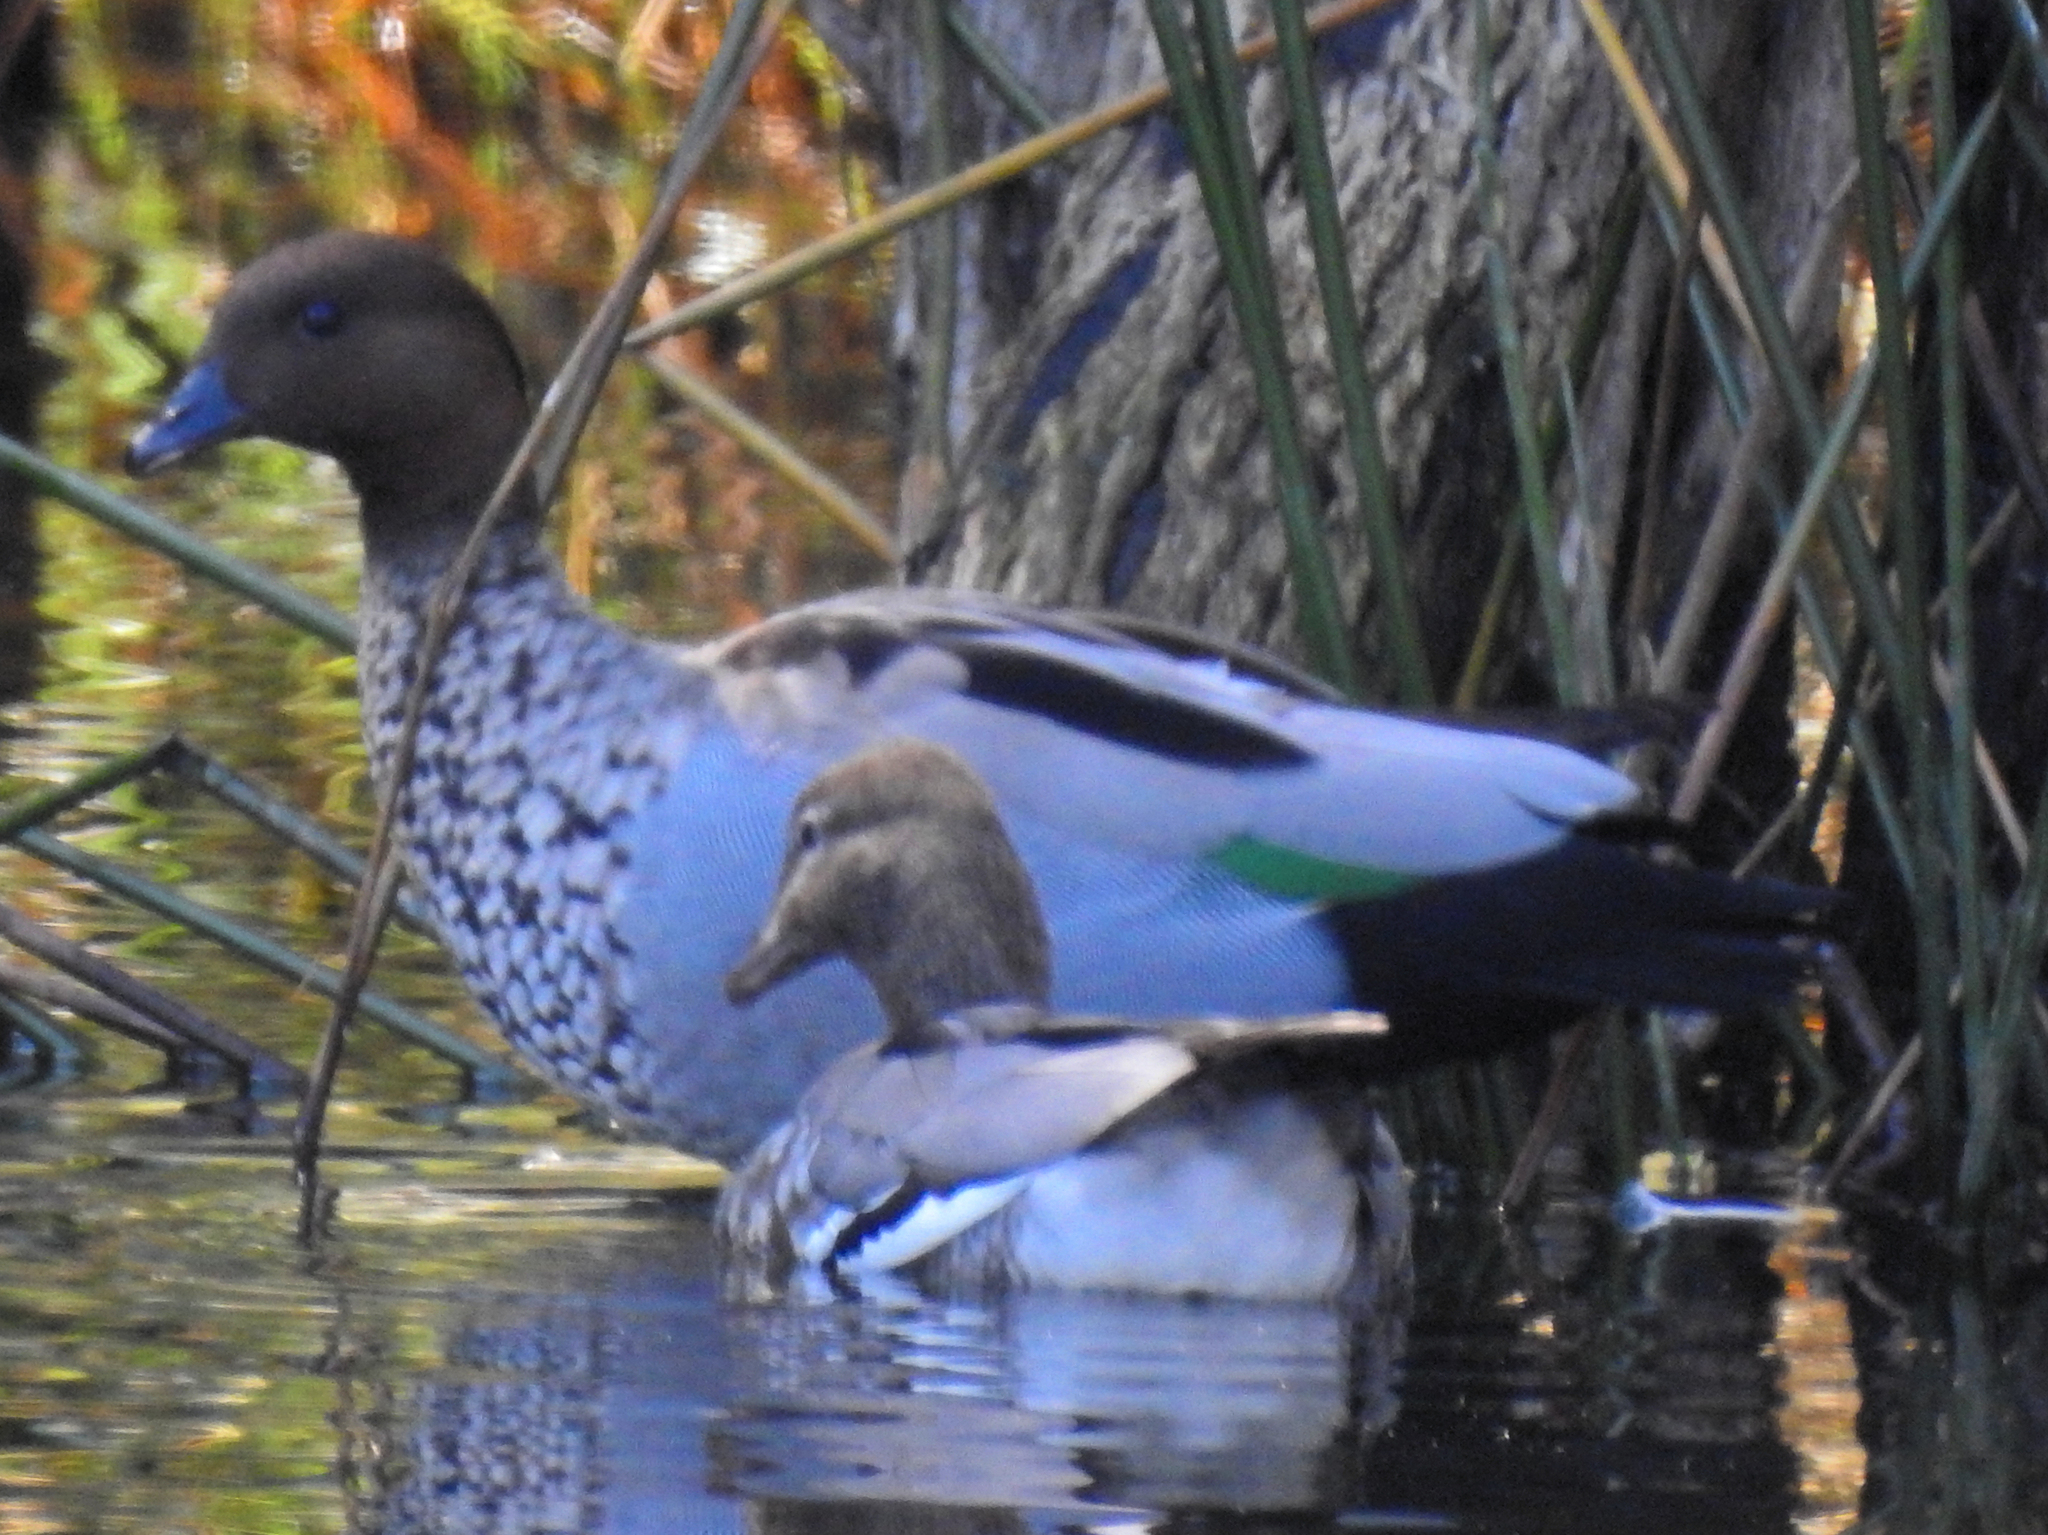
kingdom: Animalia
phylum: Chordata
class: Aves
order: Anseriformes
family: Anatidae
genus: Chenonetta
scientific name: Chenonetta jubata
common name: Maned duck
